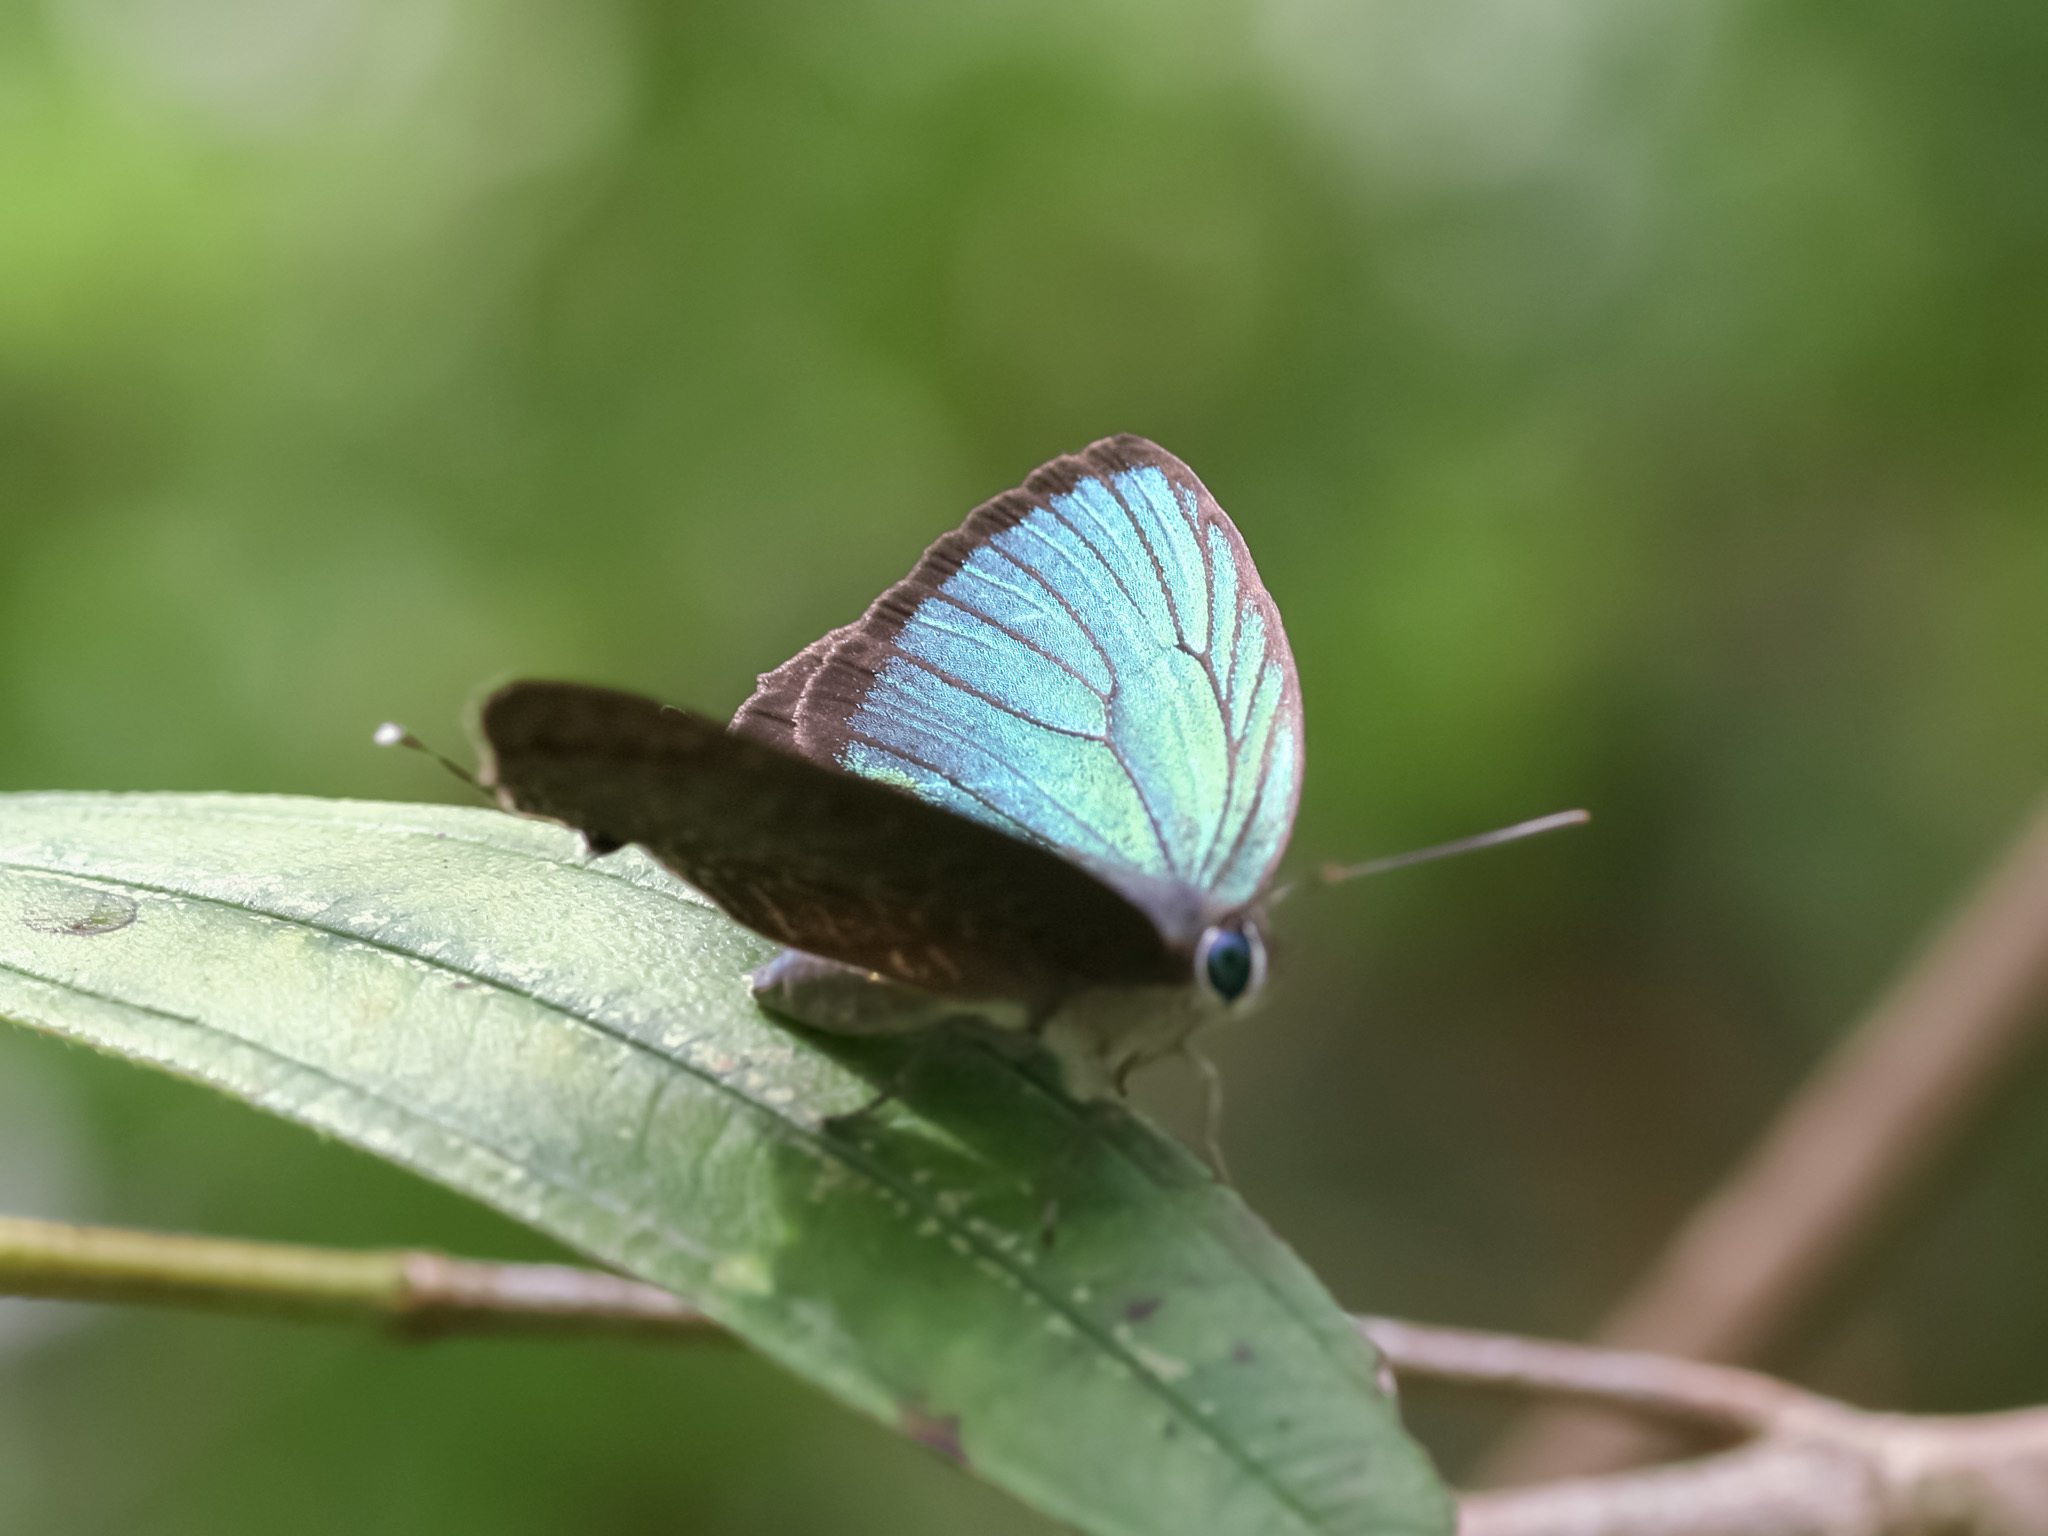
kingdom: Animalia
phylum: Arthropoda
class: Insecta
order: Lepidoptera
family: Lycaenidae
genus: Arhopala
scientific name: Arhopala eumolphus
